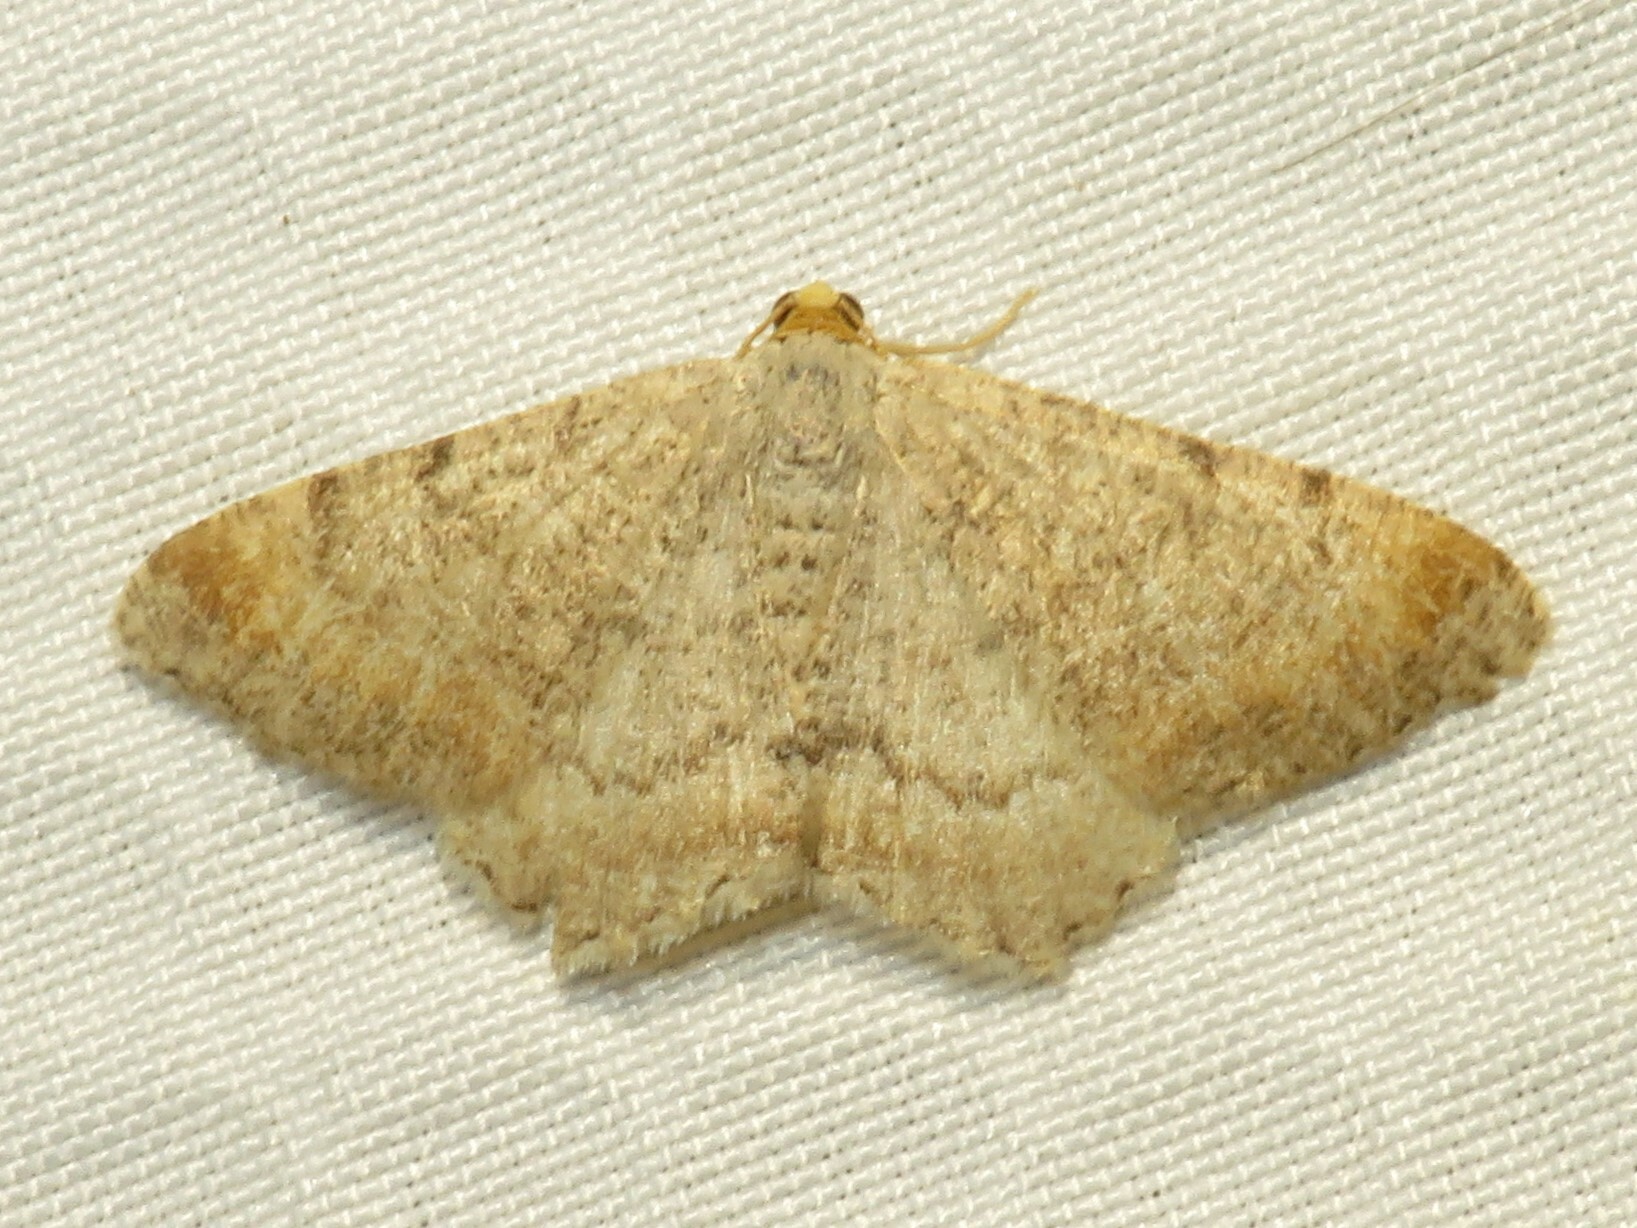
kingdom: Animalia
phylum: Arthropoda
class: Insecta
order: Lepidoptera
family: Geometridae
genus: Macaria
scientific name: Macaria minorata
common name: Minor angle moth
